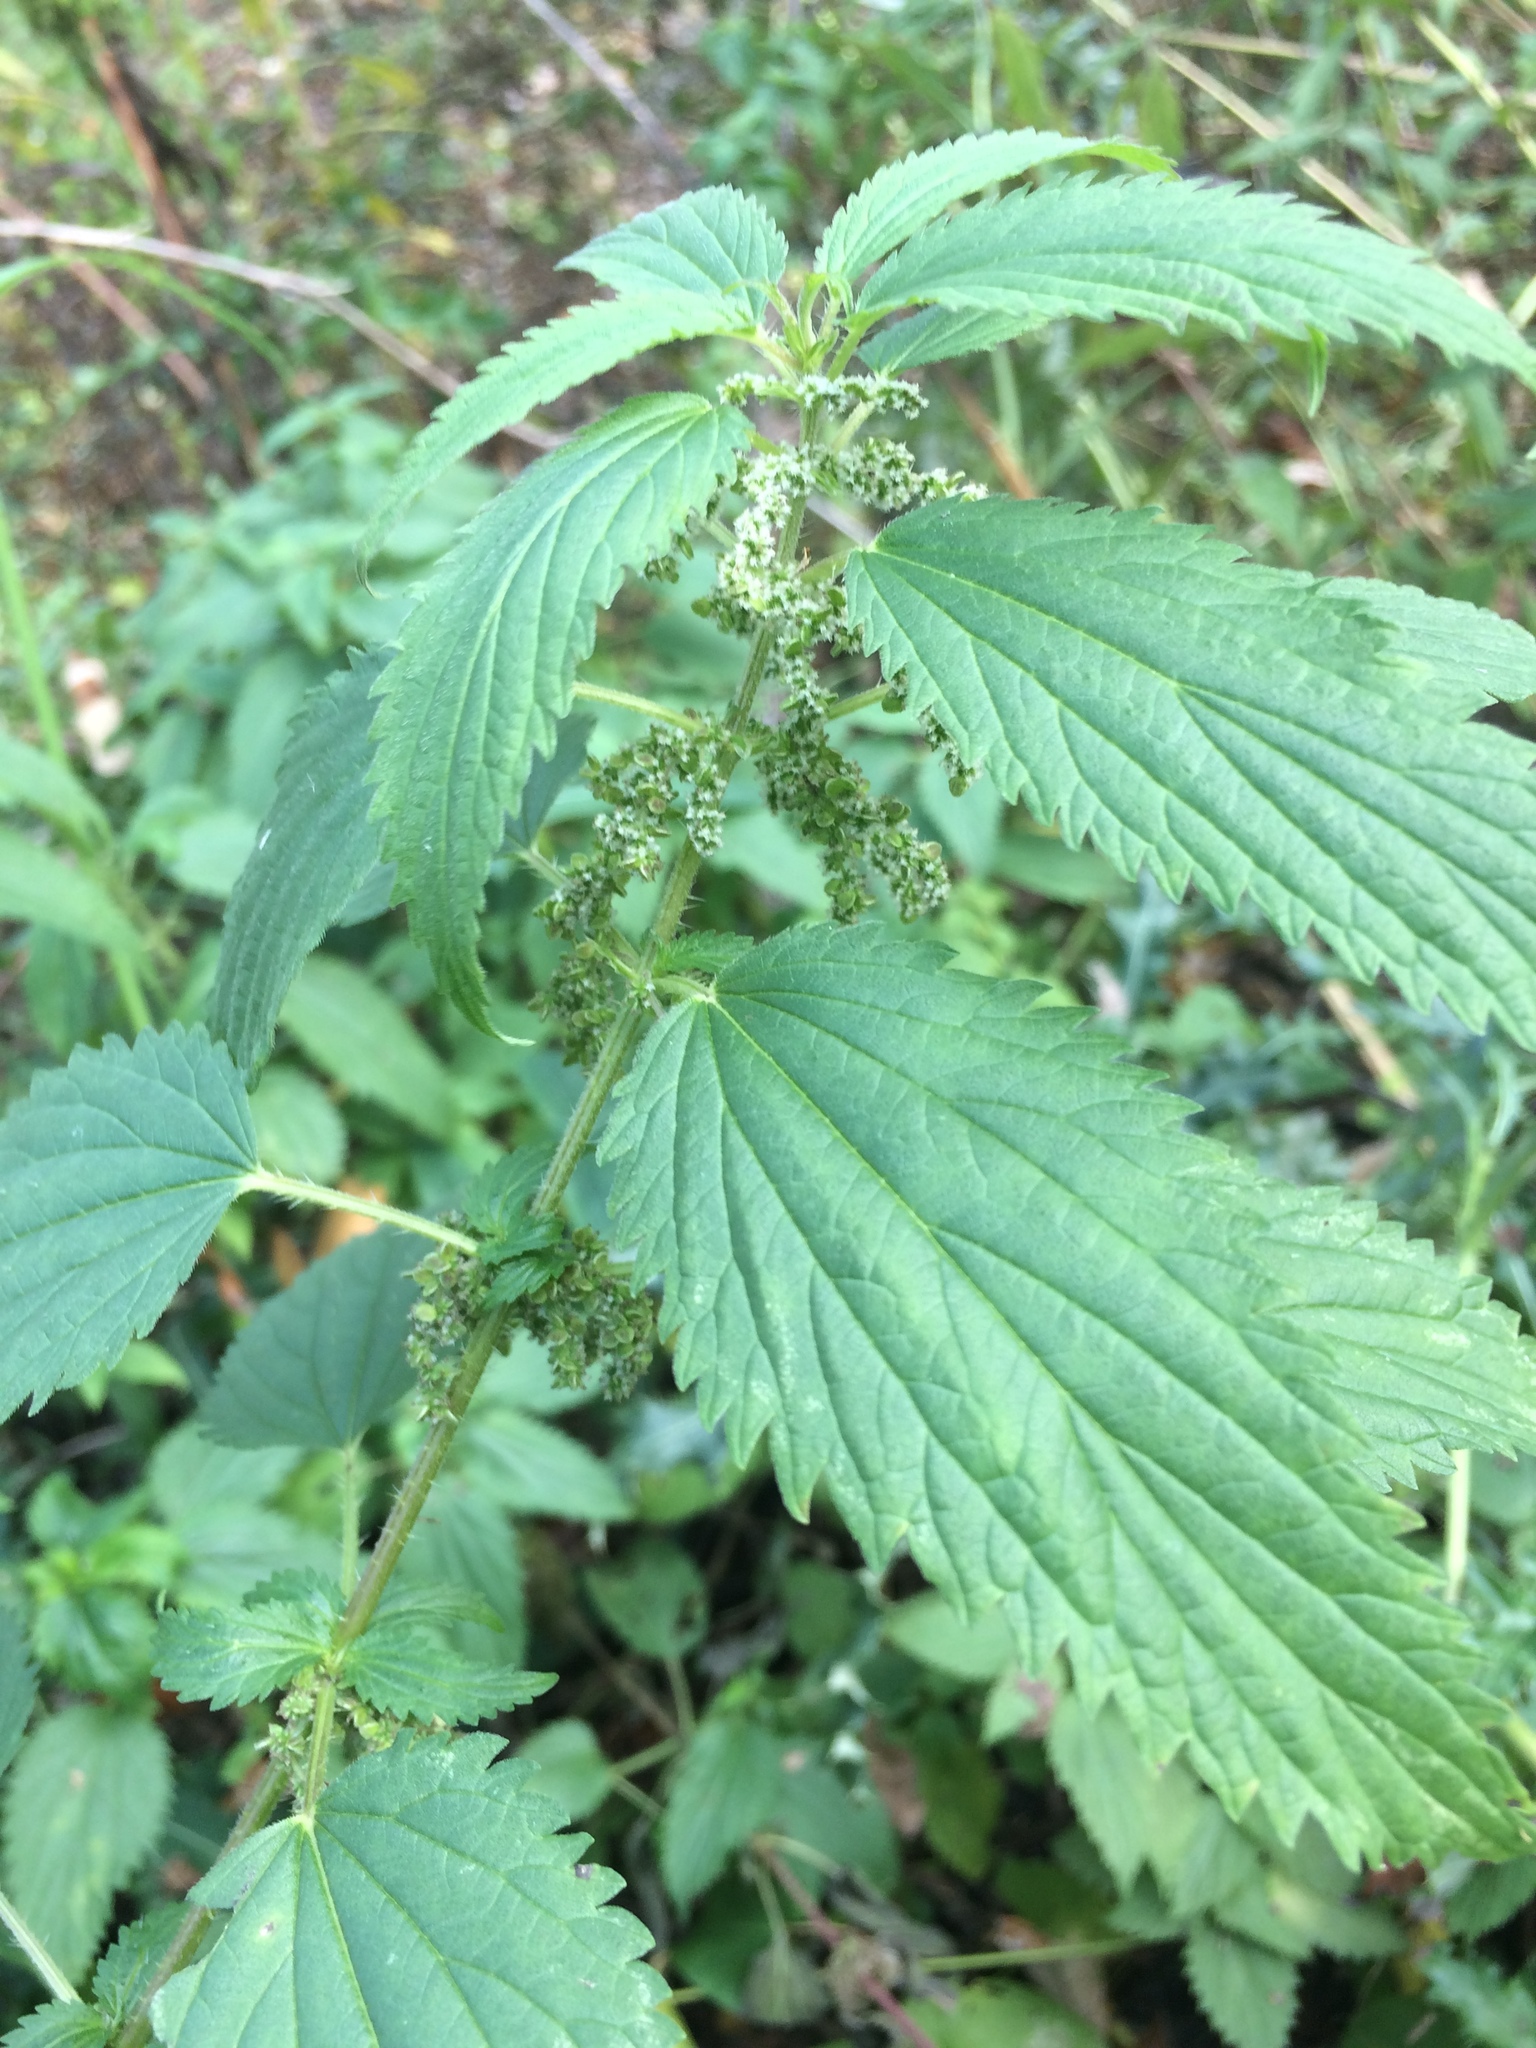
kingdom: Plantae
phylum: Tracheophyta
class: Magnoliopsida
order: Rosales
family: Urticaceae
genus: Urtica
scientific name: Urtica gracilis
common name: Slender stinging nettle
